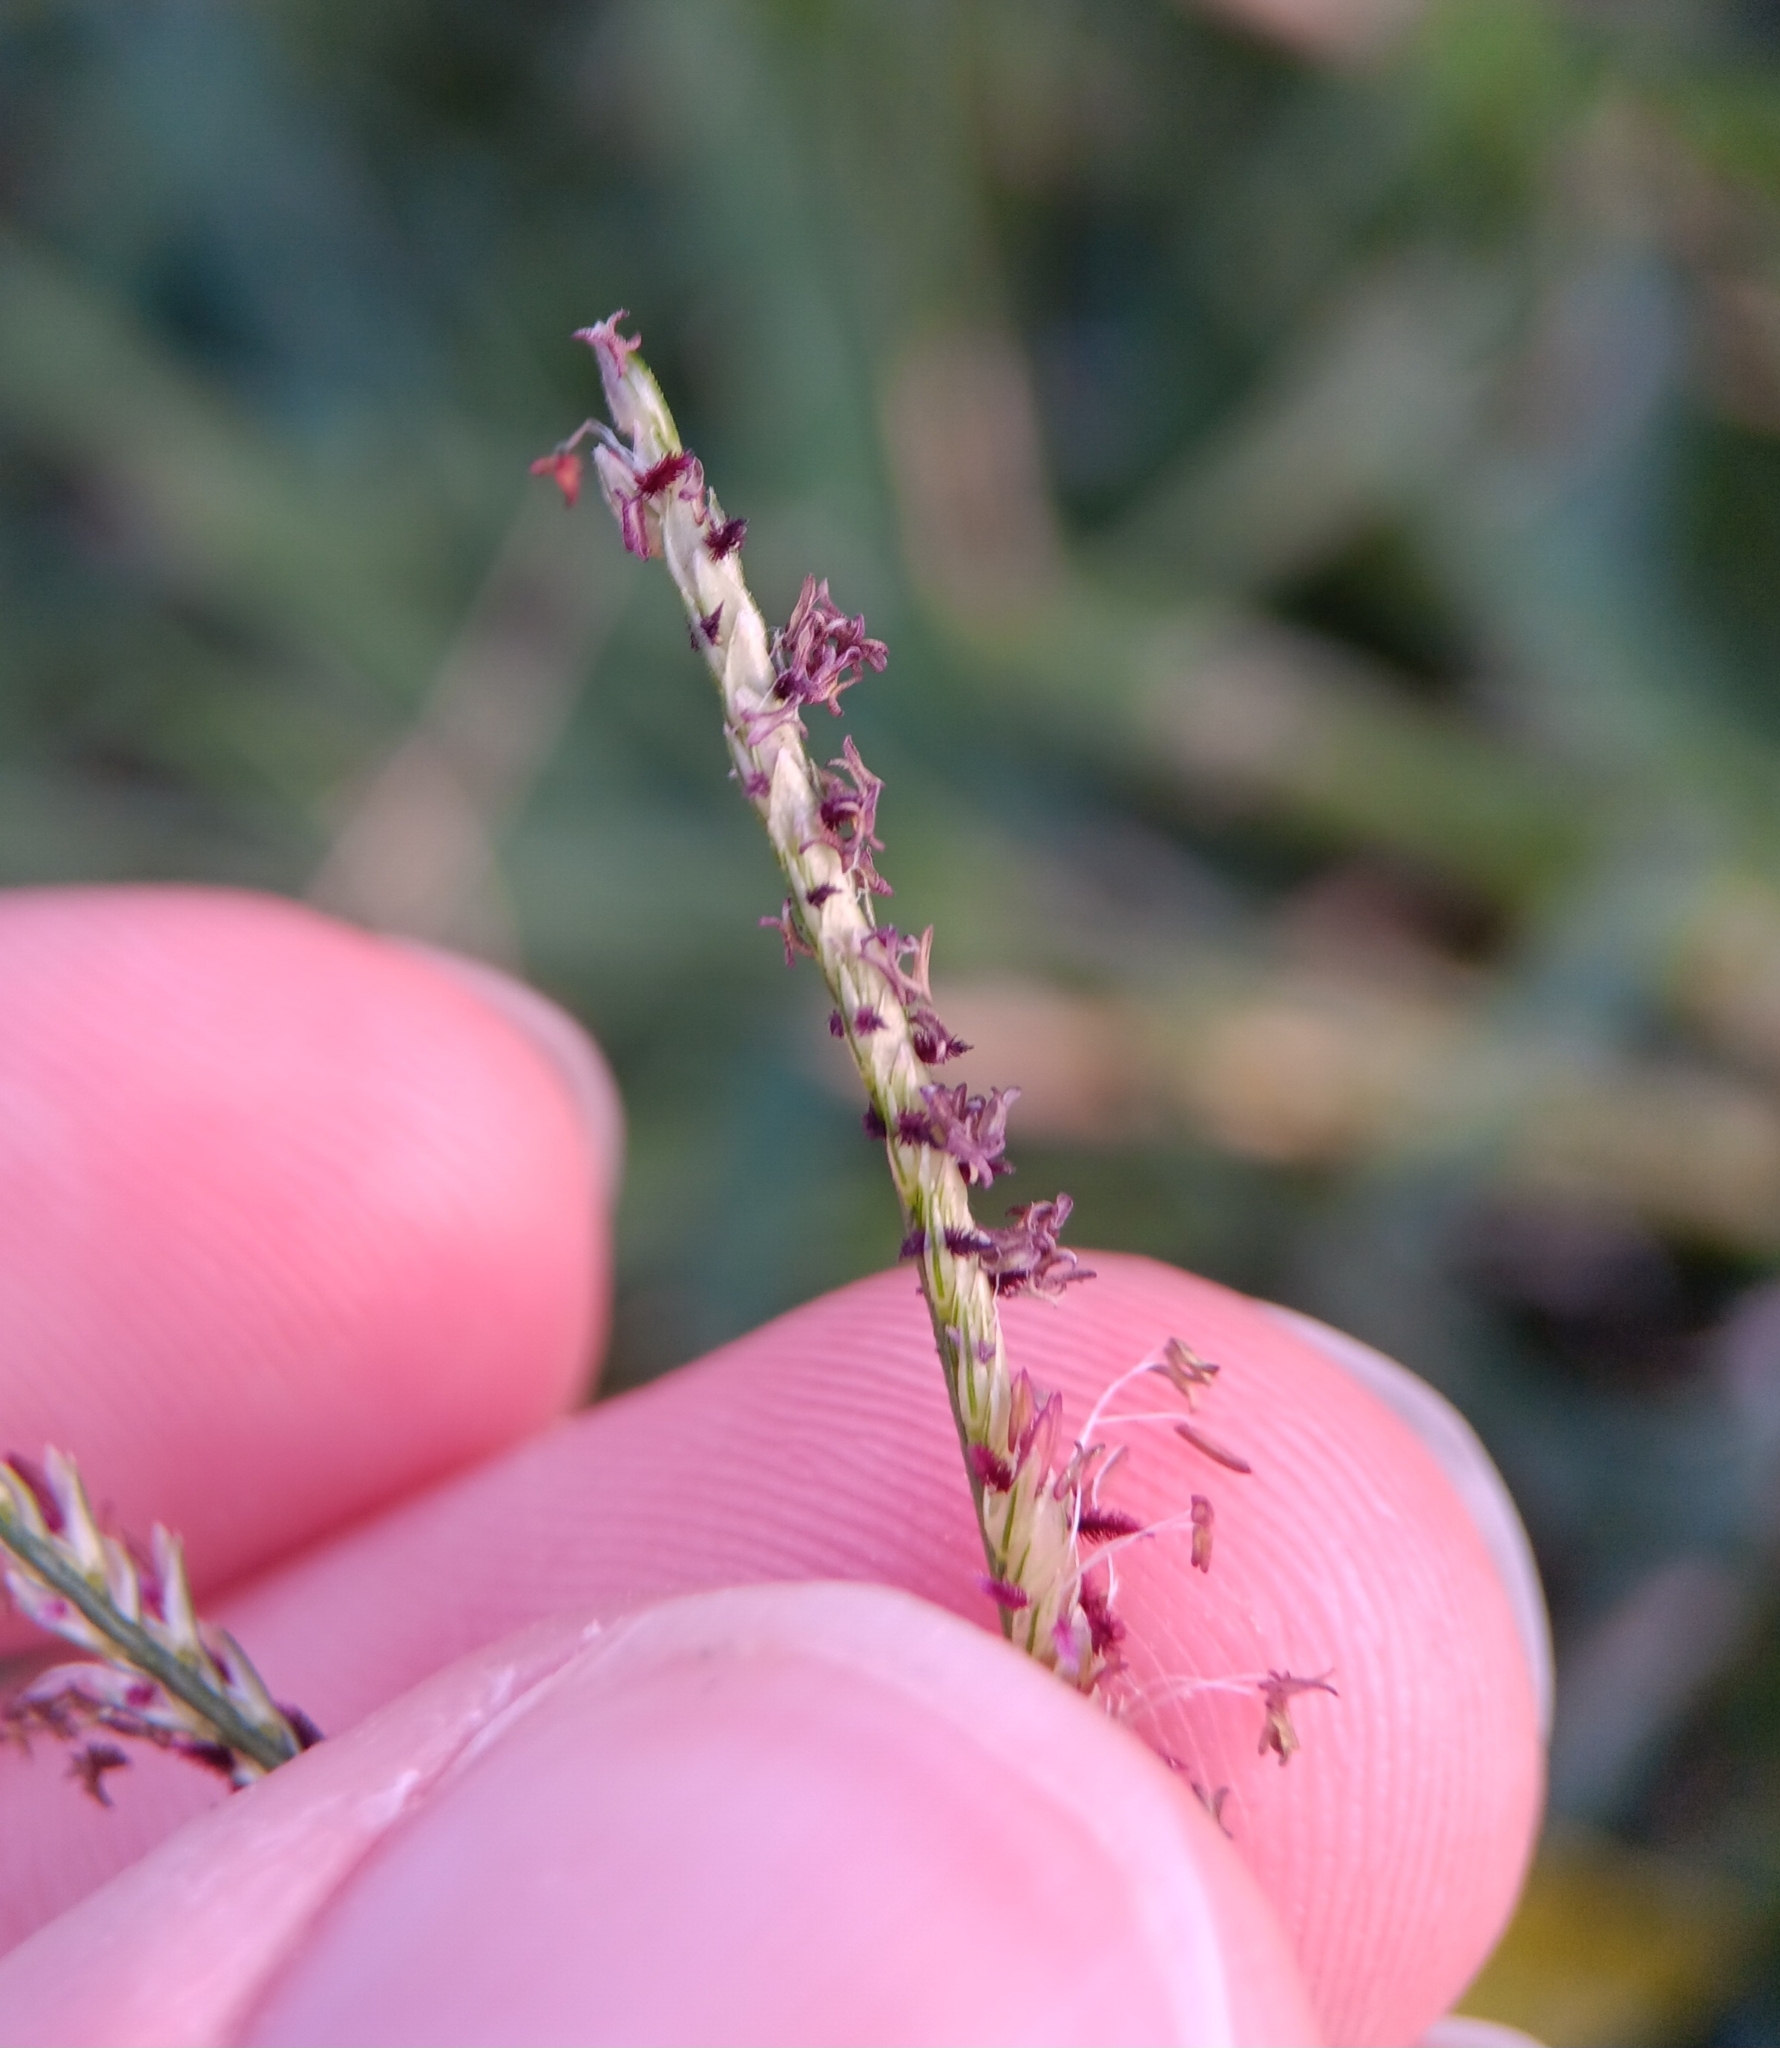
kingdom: Plantae
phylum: Tracheophyta
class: Liliopsida
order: Poales
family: Poaceae
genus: Cynodon
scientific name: Cynodon dactylon
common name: Bermuda grass
